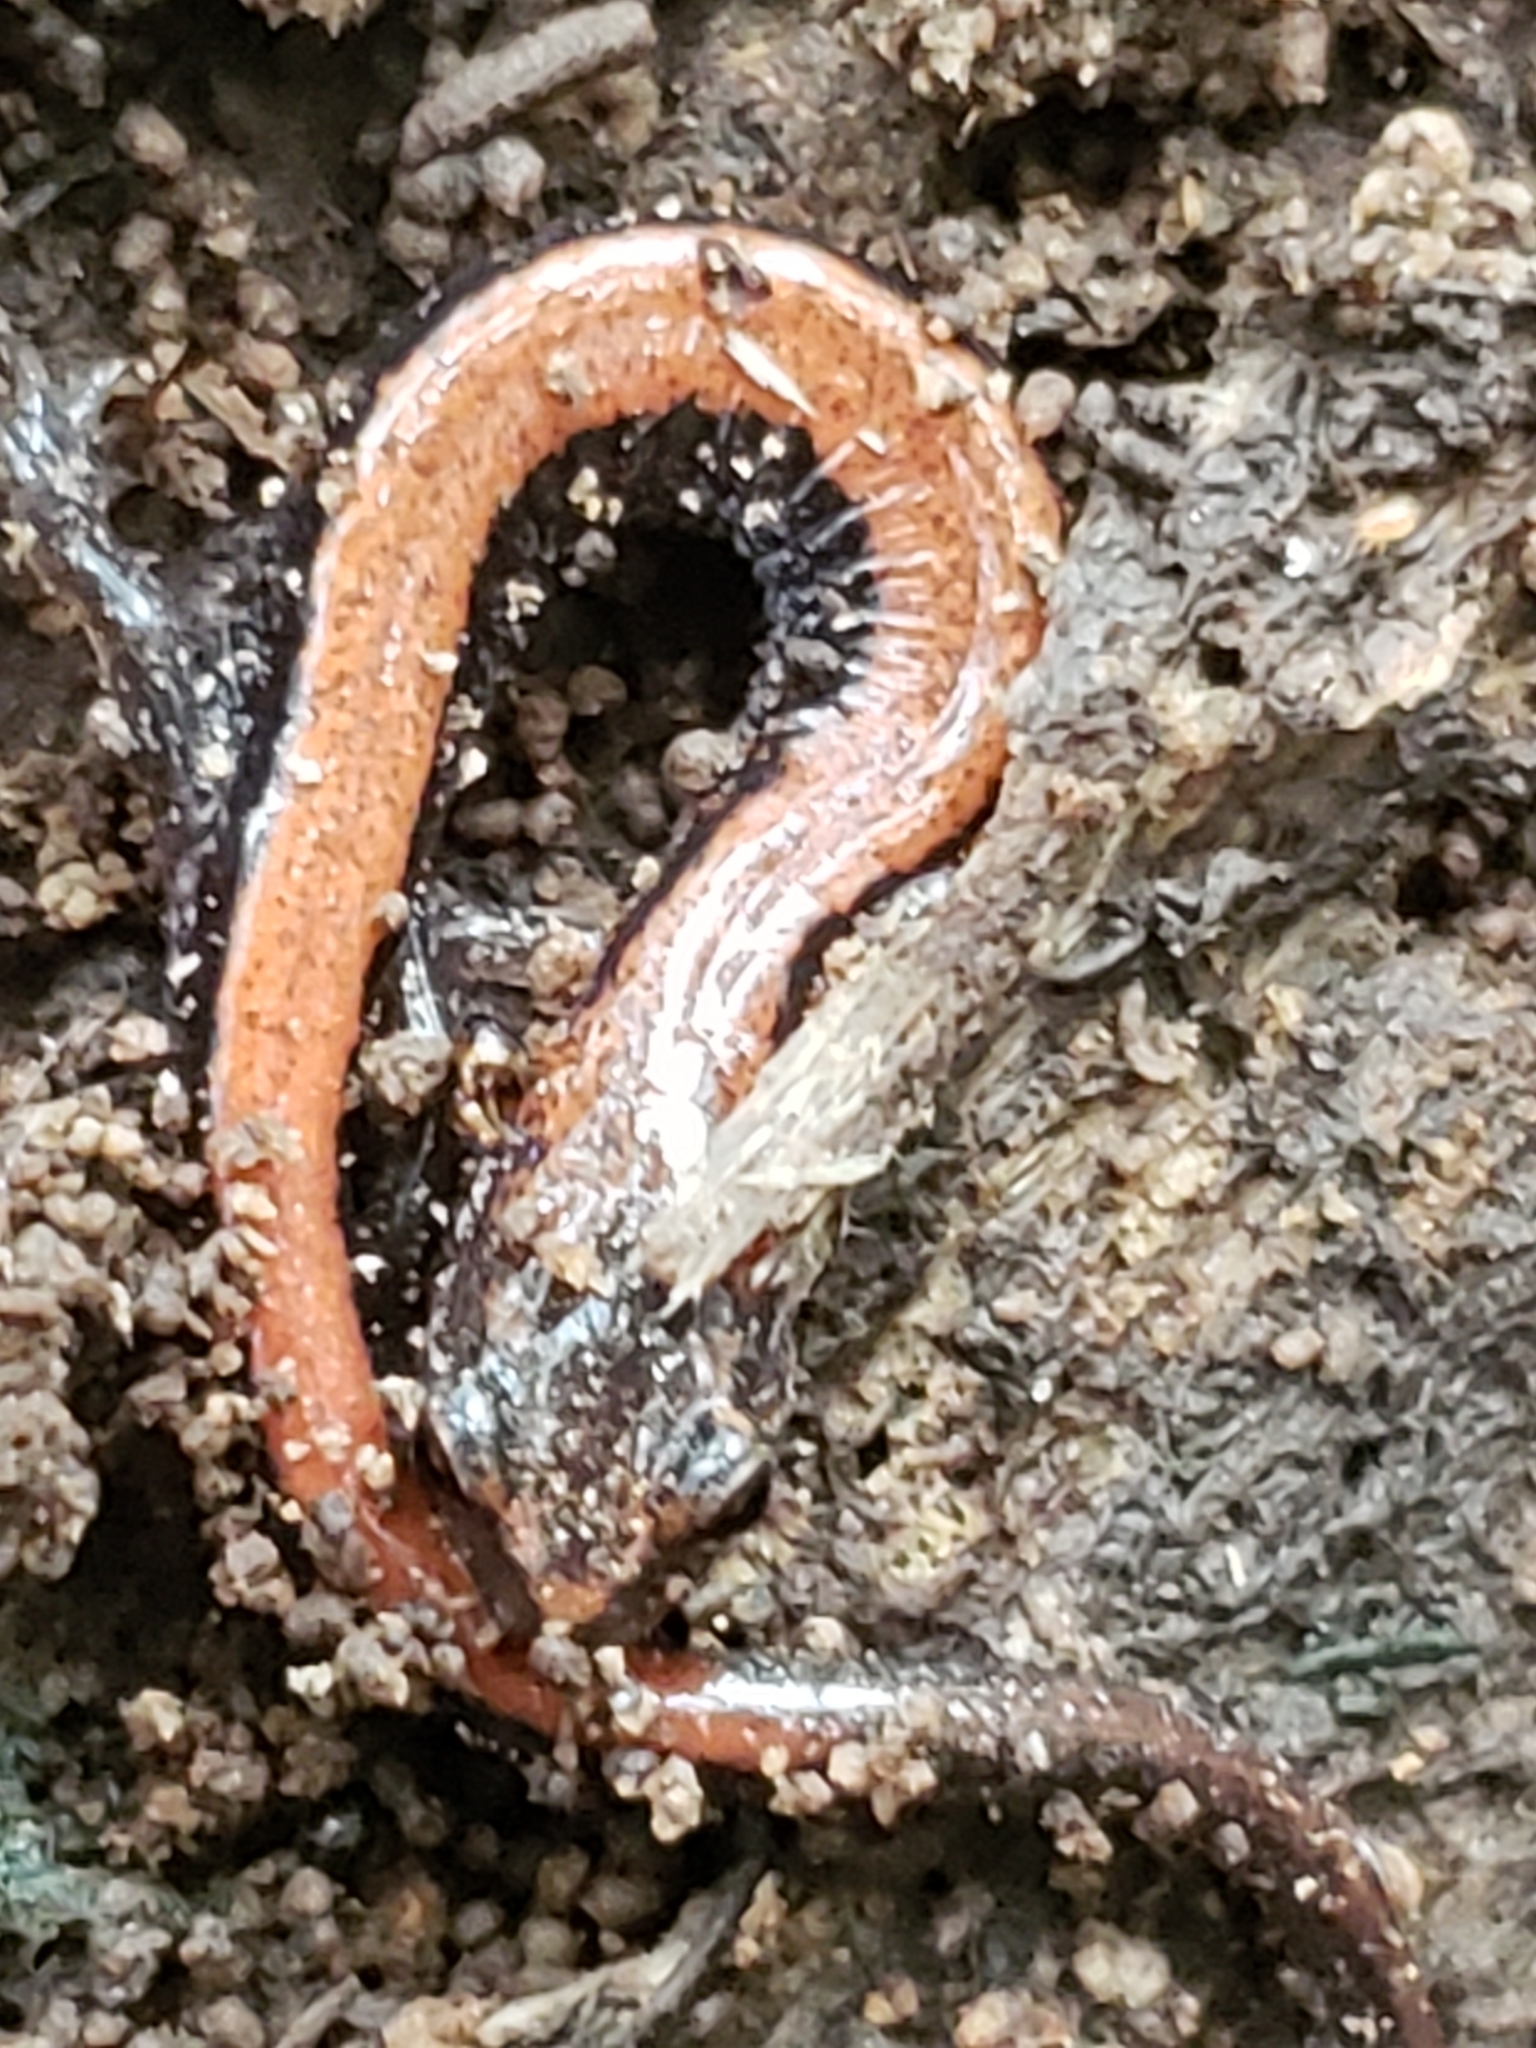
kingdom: Animalia
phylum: Chordata
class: Amphibia
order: Caudata
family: Plethodontidae
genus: Plethodon
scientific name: Plethodon cinereus
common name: Redback salamander
